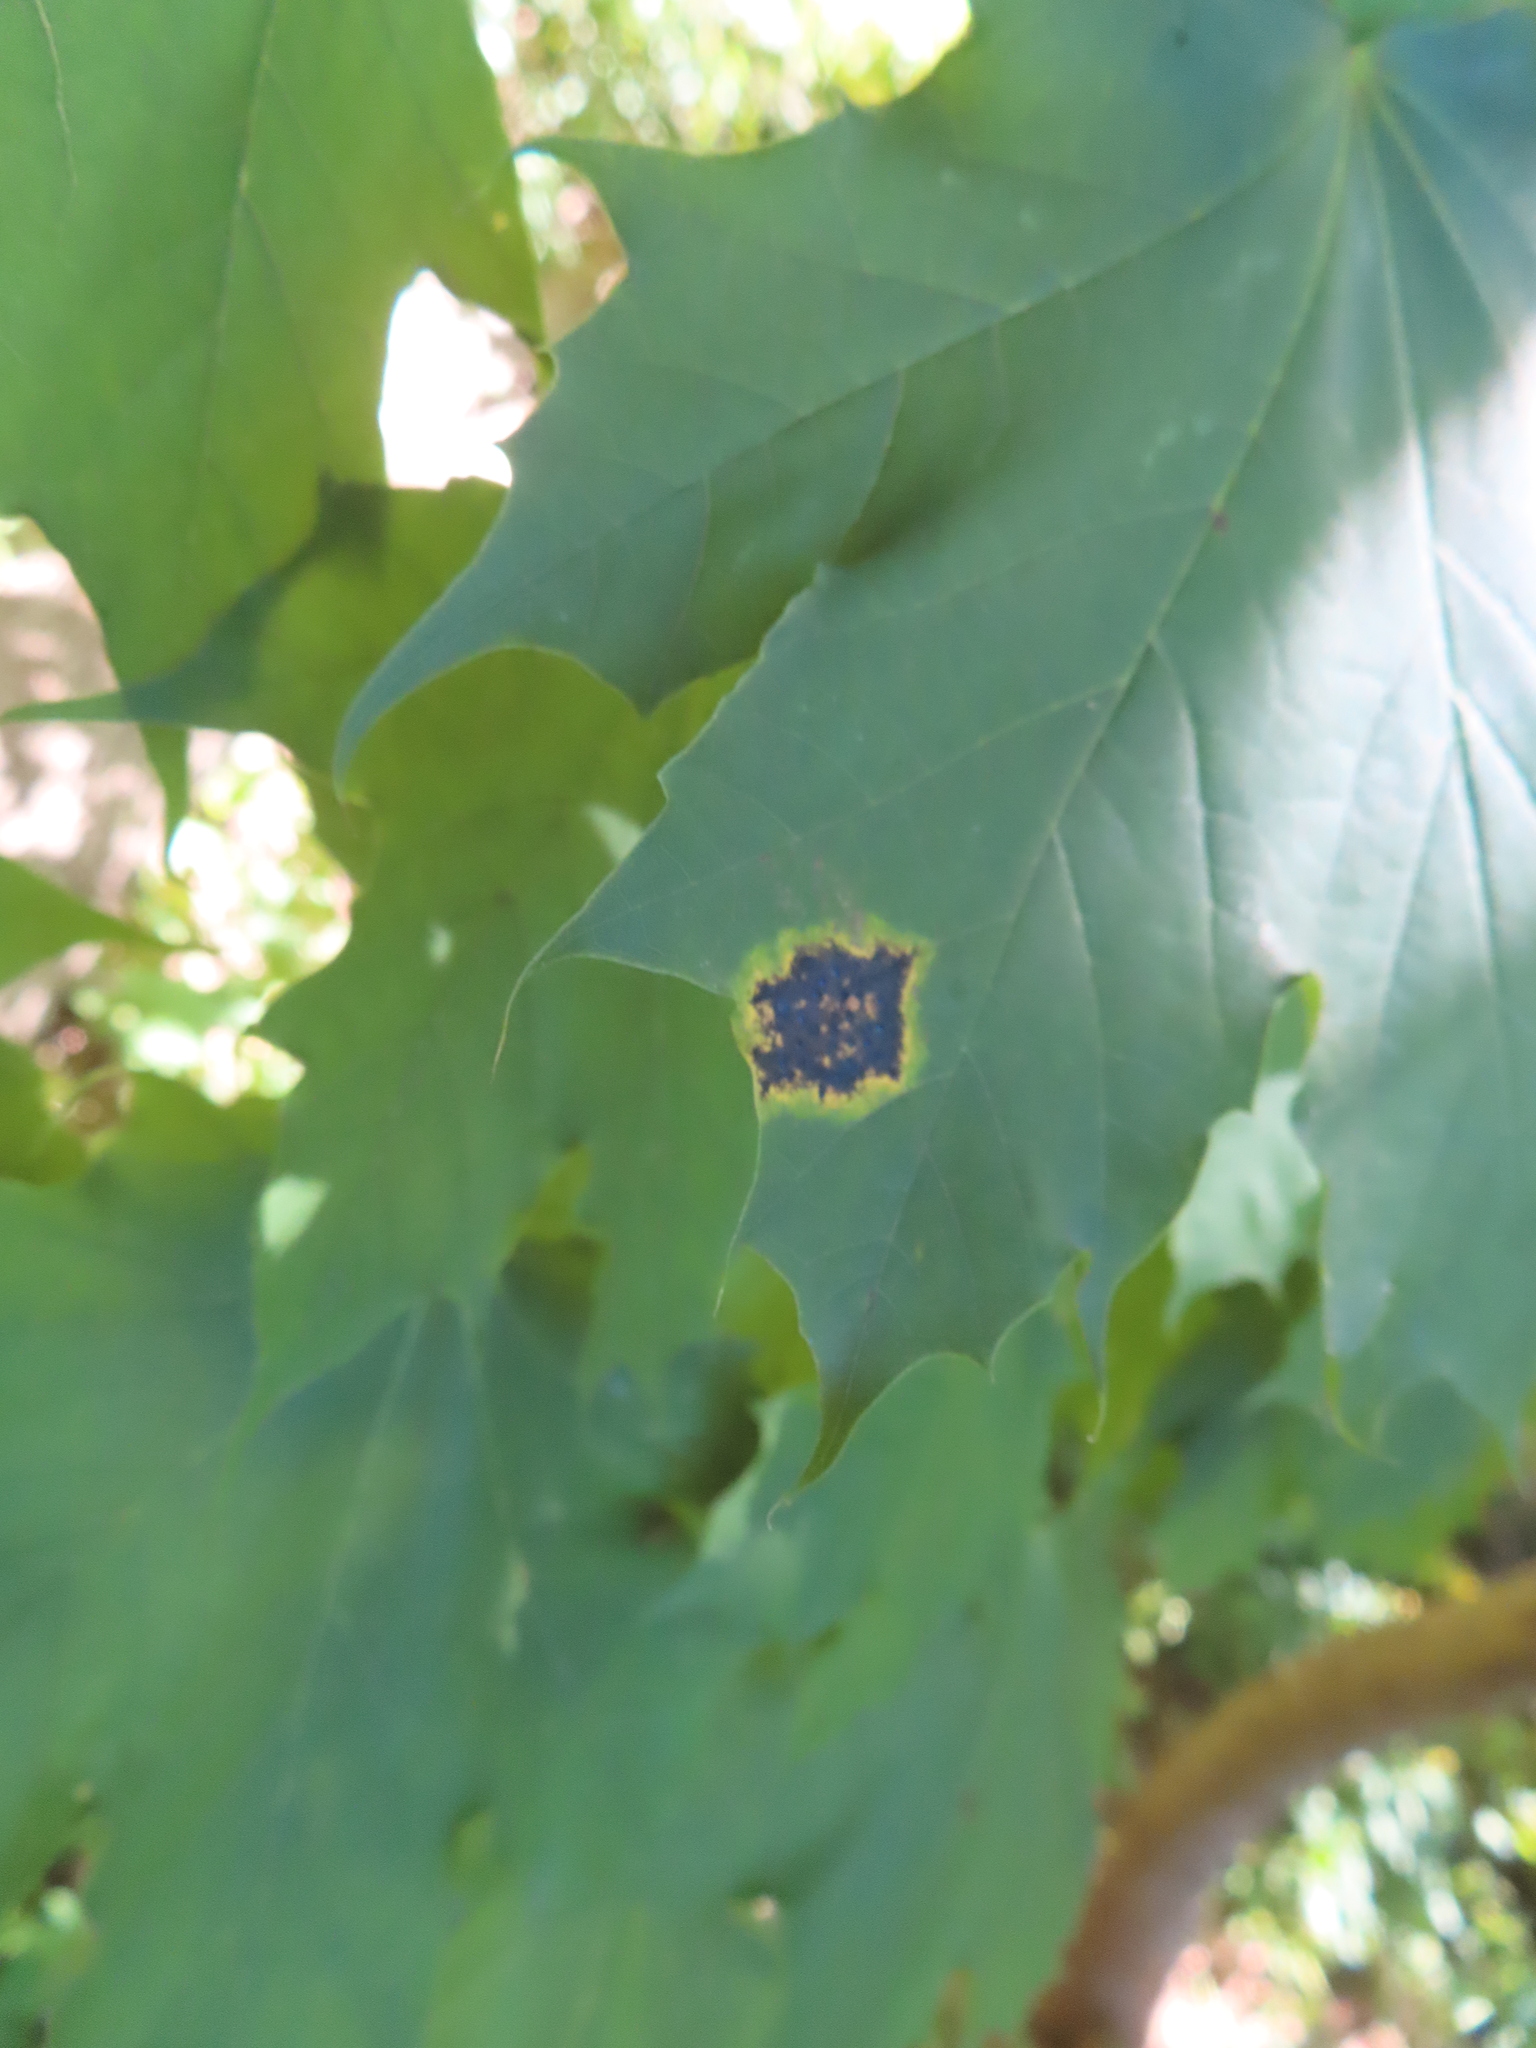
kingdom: Fungi
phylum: Ascomycota
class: Leotiomycetes
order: Rhytismatales
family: Rhytismataceae
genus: Rhytisma
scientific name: Rhytisma acerinum
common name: European tar spot
